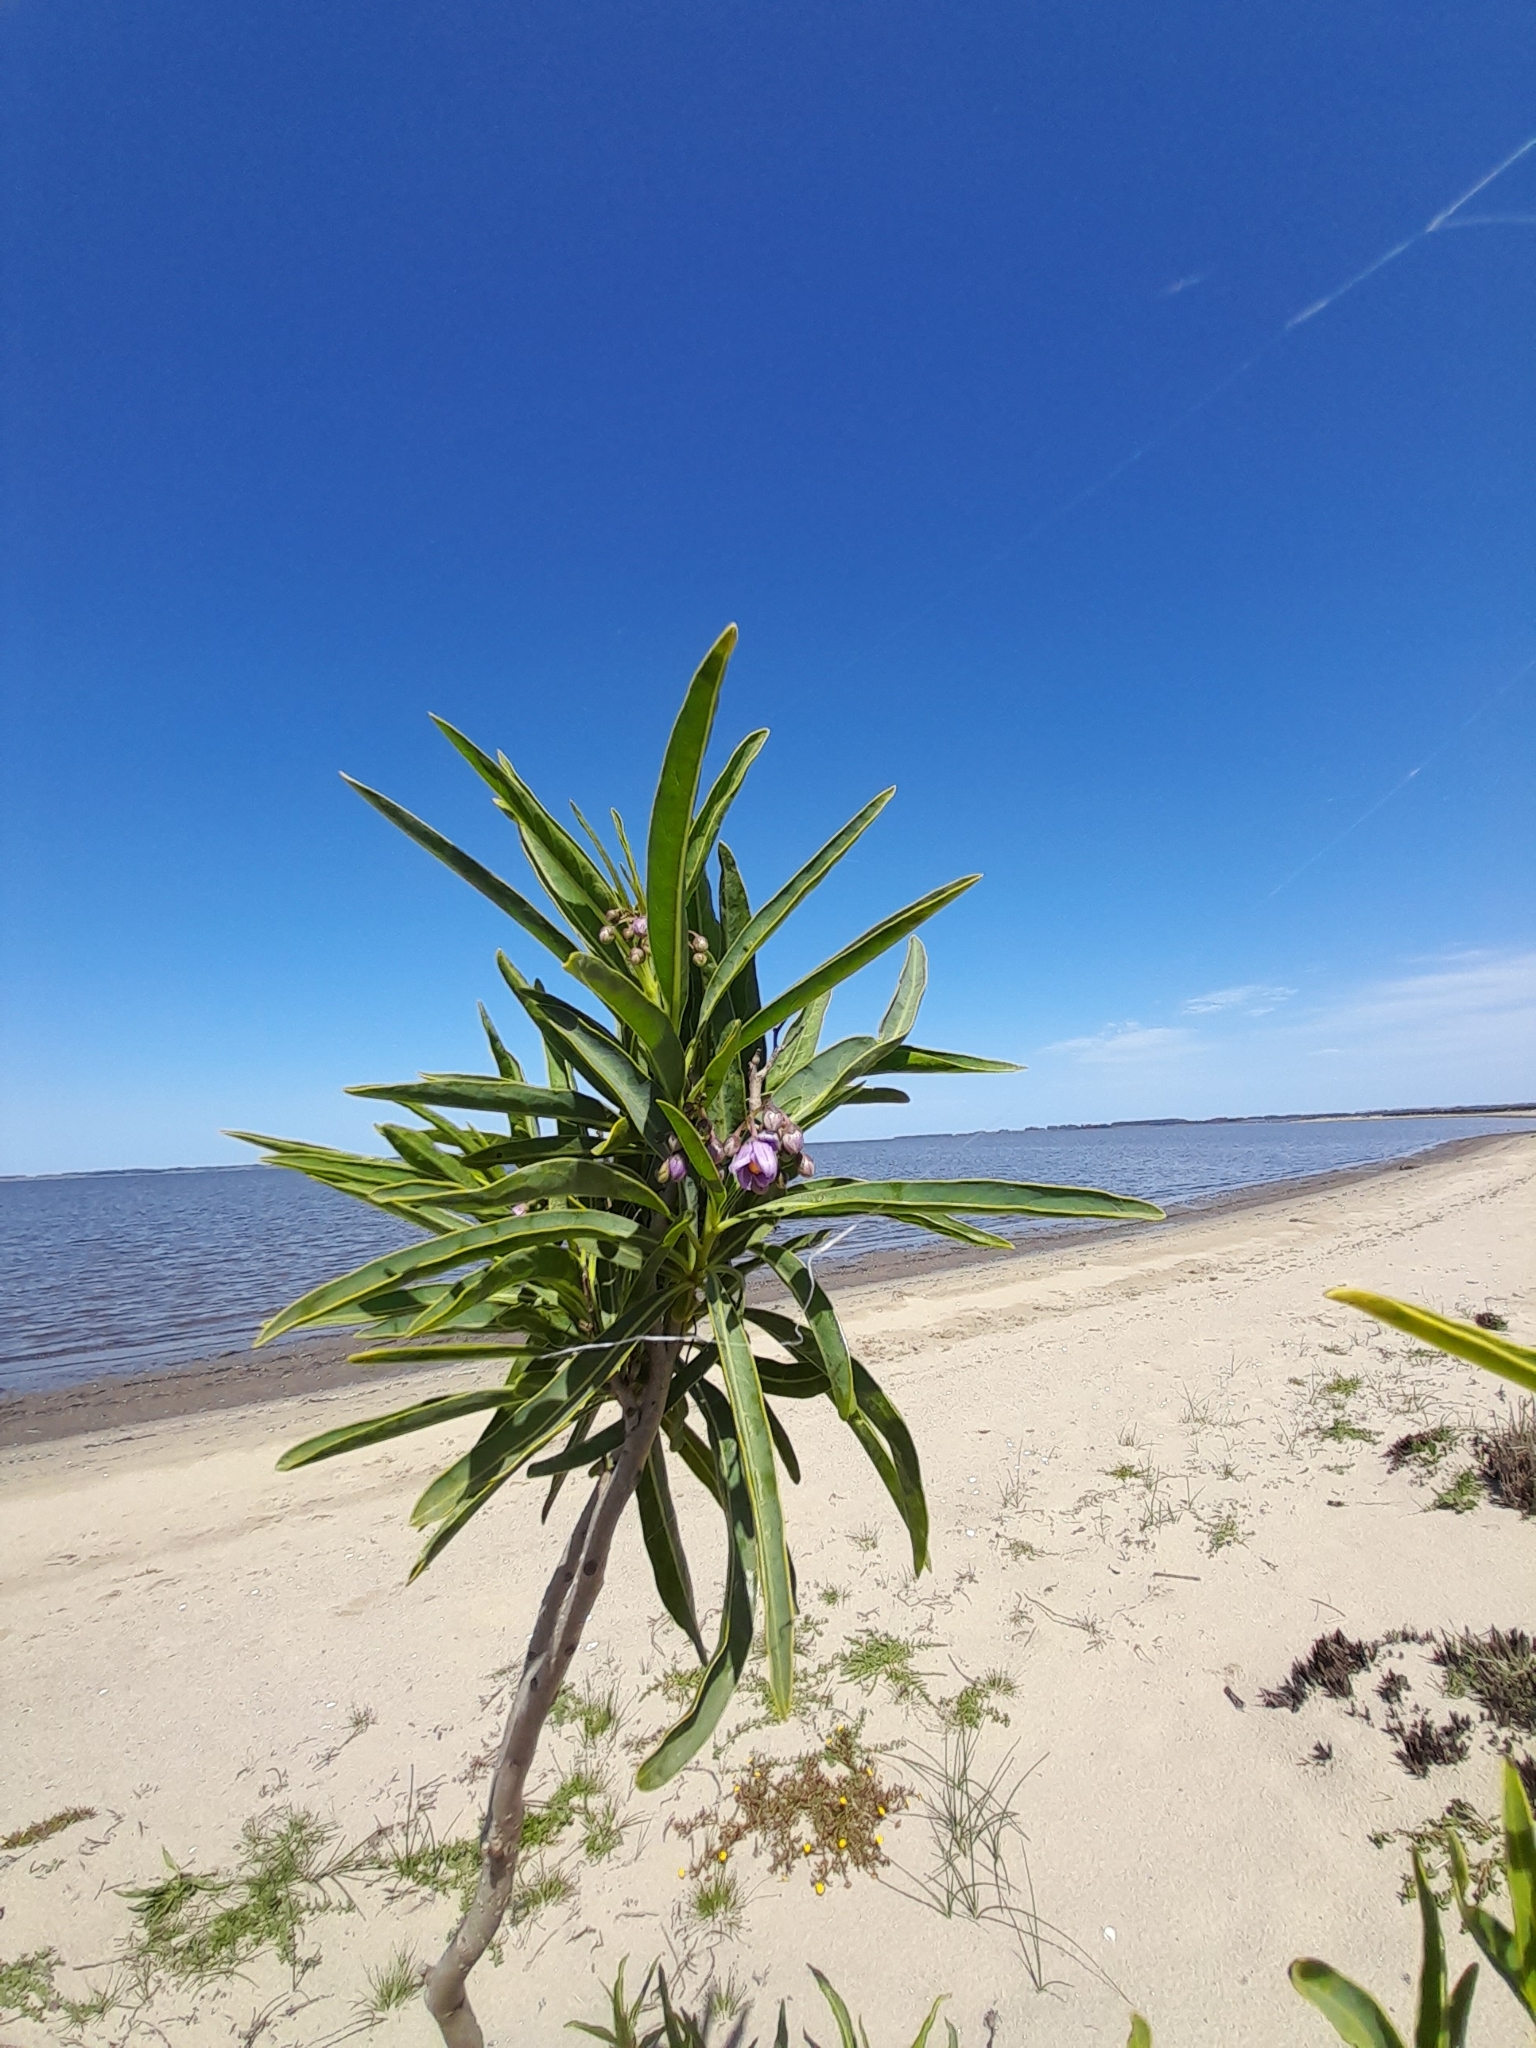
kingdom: Plantae
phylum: Tracheophyta
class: Magnoliopsida
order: Solanales
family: Solanaceae
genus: Solanum
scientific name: Solanum glaucophyllum
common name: Waxyleaf nightshade
